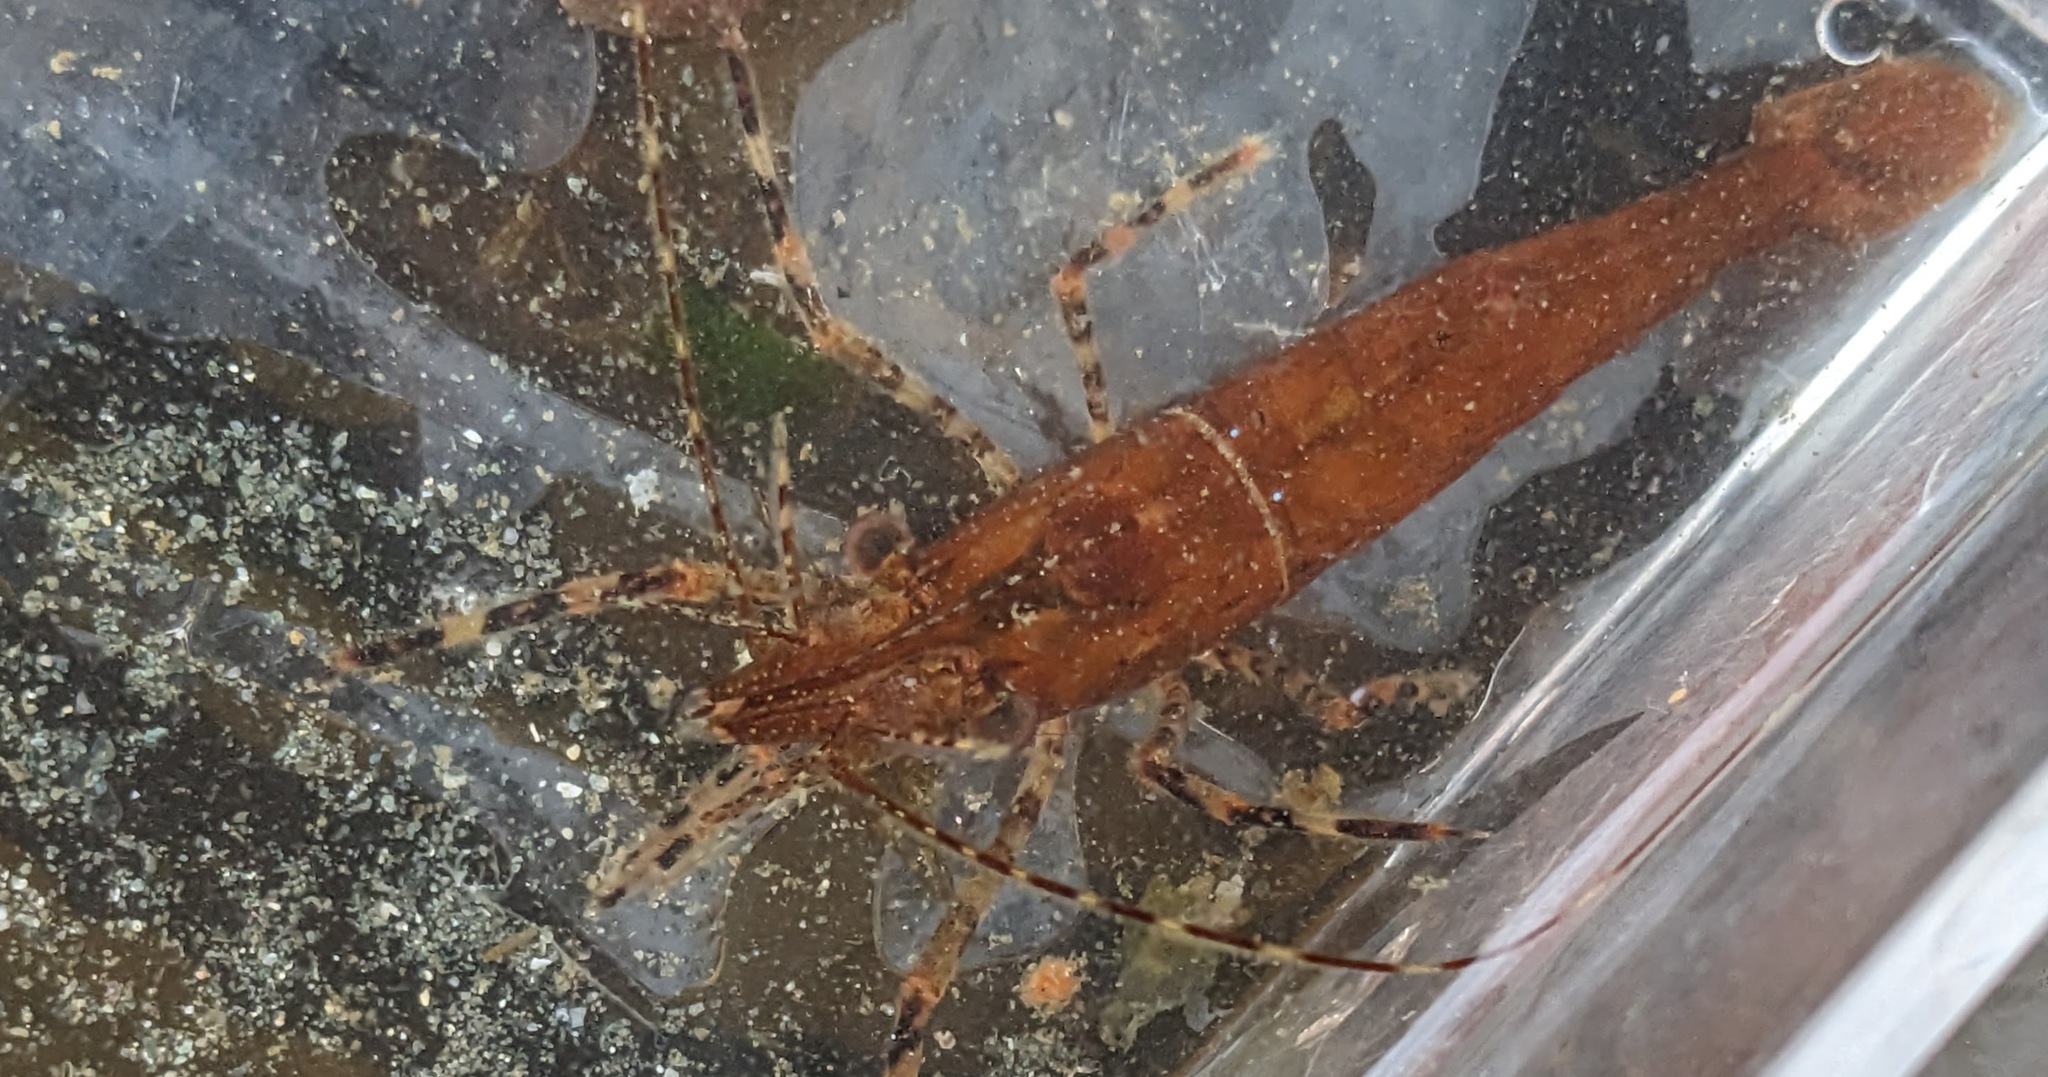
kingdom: Animalia
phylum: Arthropoda
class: Malacostraca
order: Decapoda
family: Pandalidae
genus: Pandalus
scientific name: Pandalus danae
